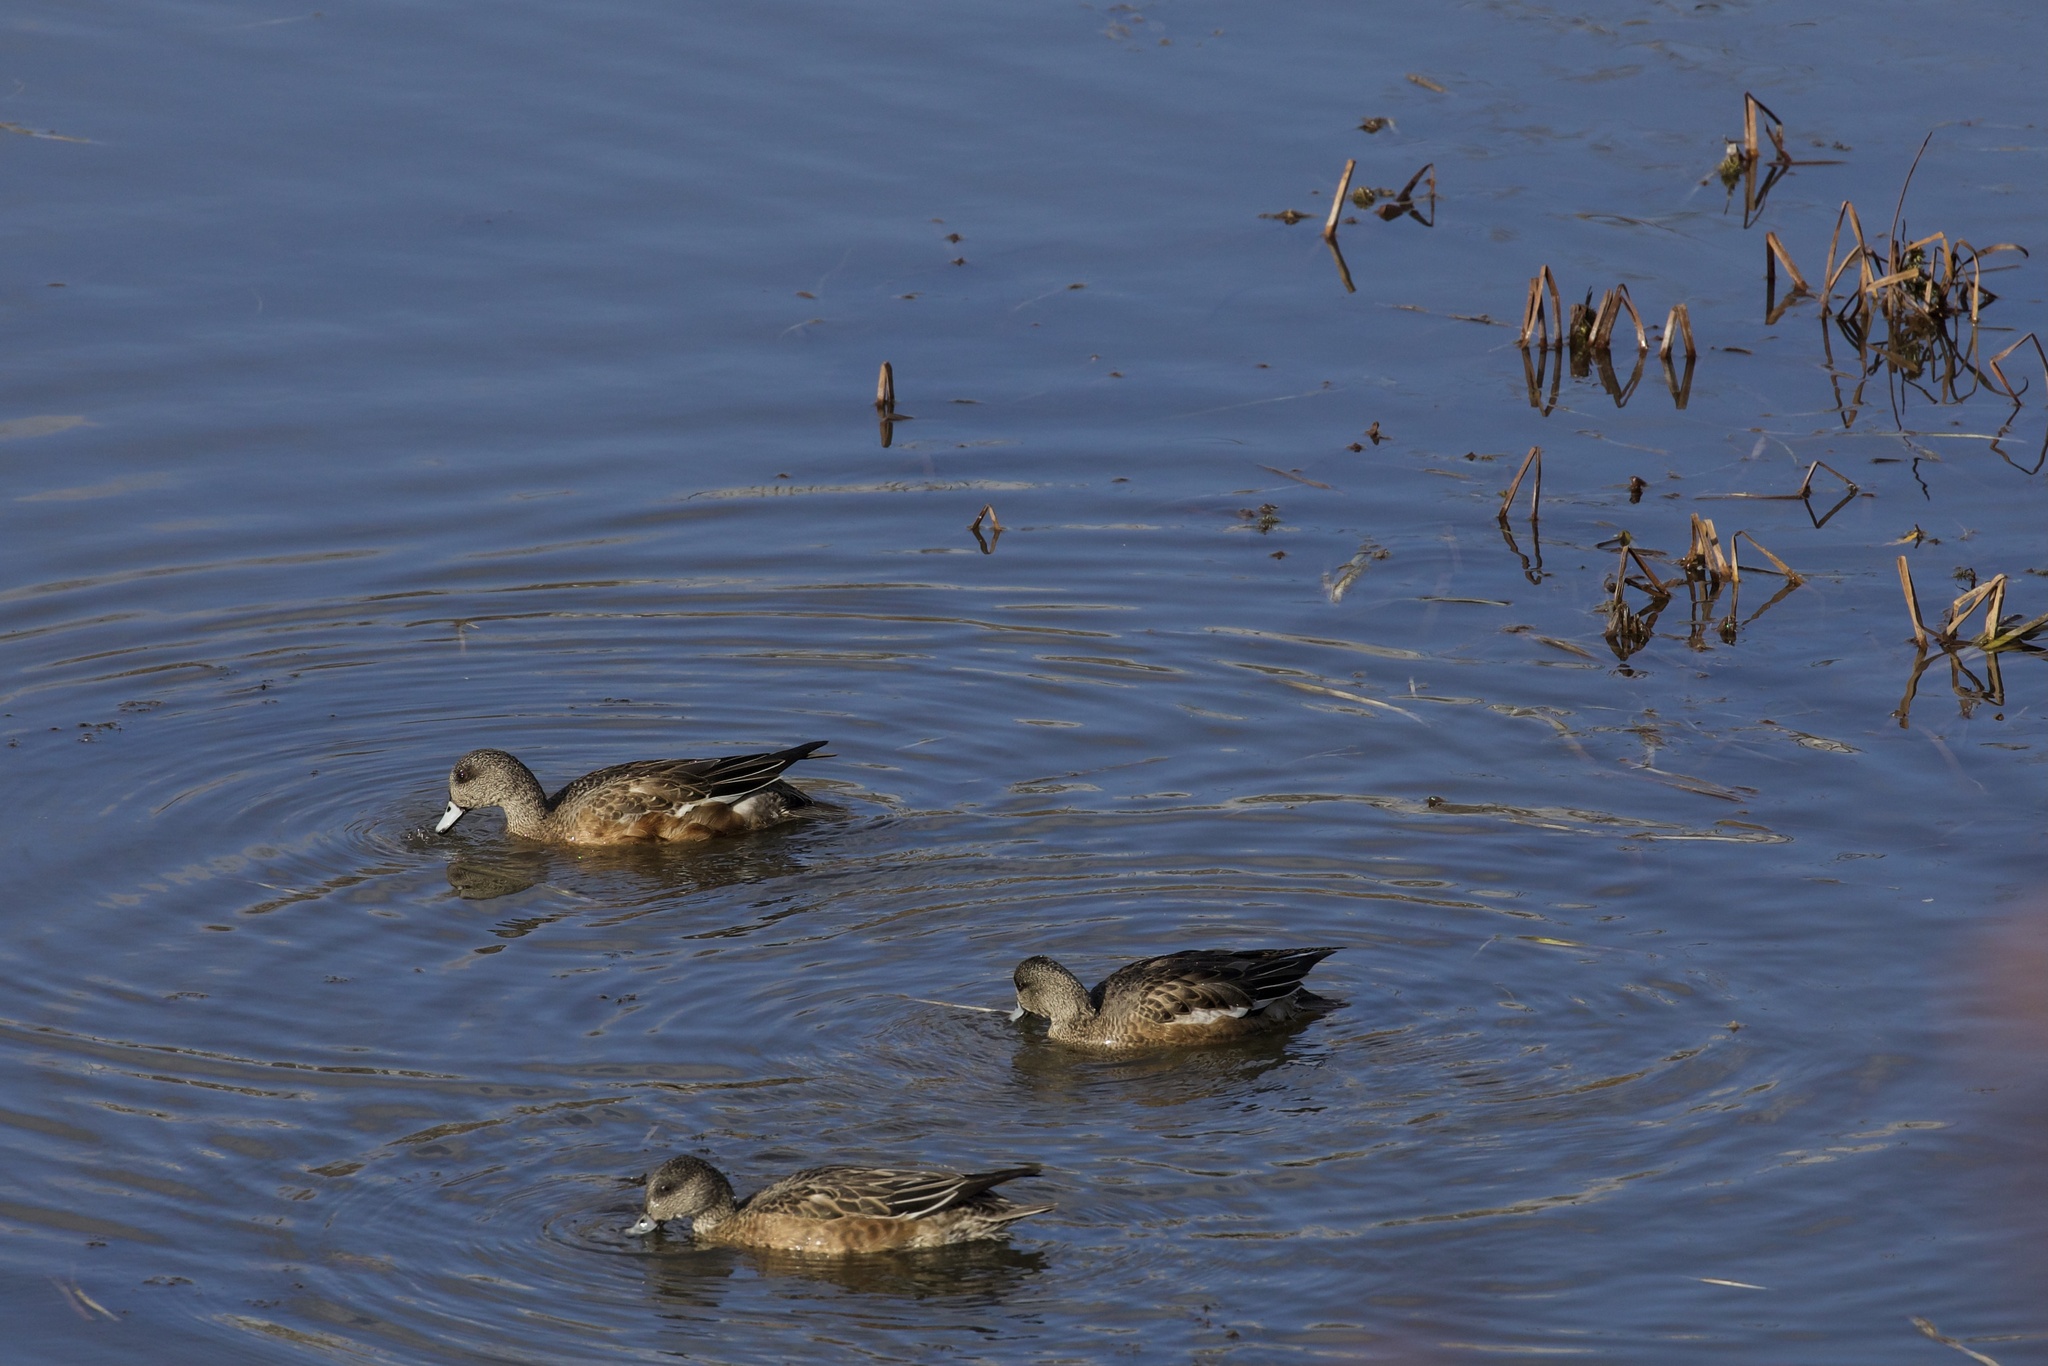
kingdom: Animalia
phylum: Chordata
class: Aves
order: Anseriformes
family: Anatidae
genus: Mareca
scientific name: Mareca americana
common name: American wigeon
